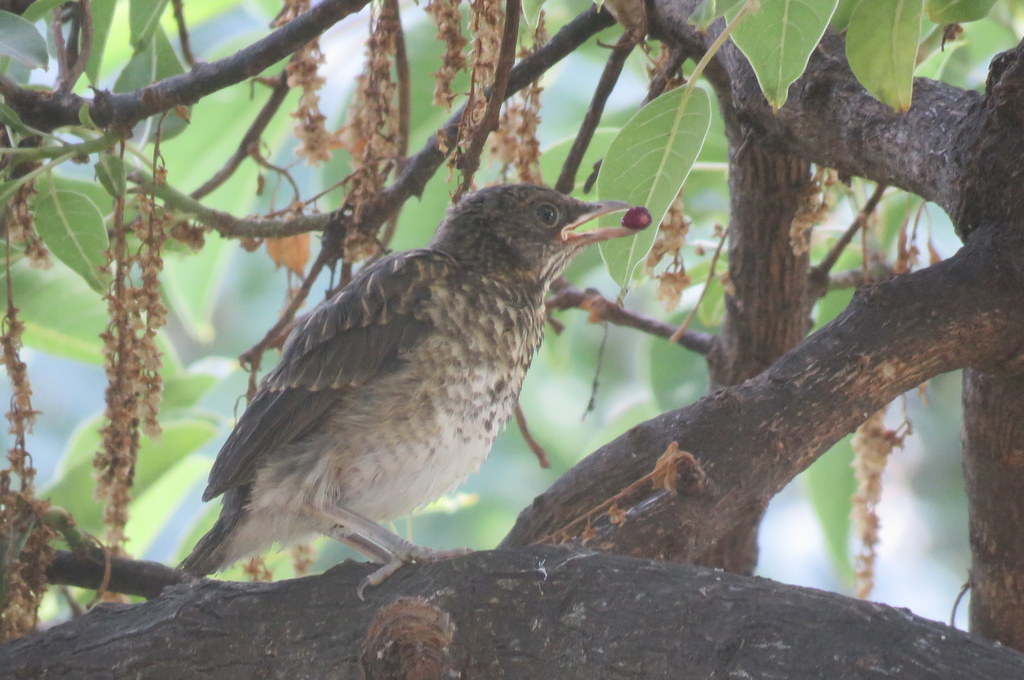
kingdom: Animalia
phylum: Chordata
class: Aves
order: Passeriformes
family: Turdidae
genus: Turdus
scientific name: Turdus amaurochalinus
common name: Creamy-bellied thrush
